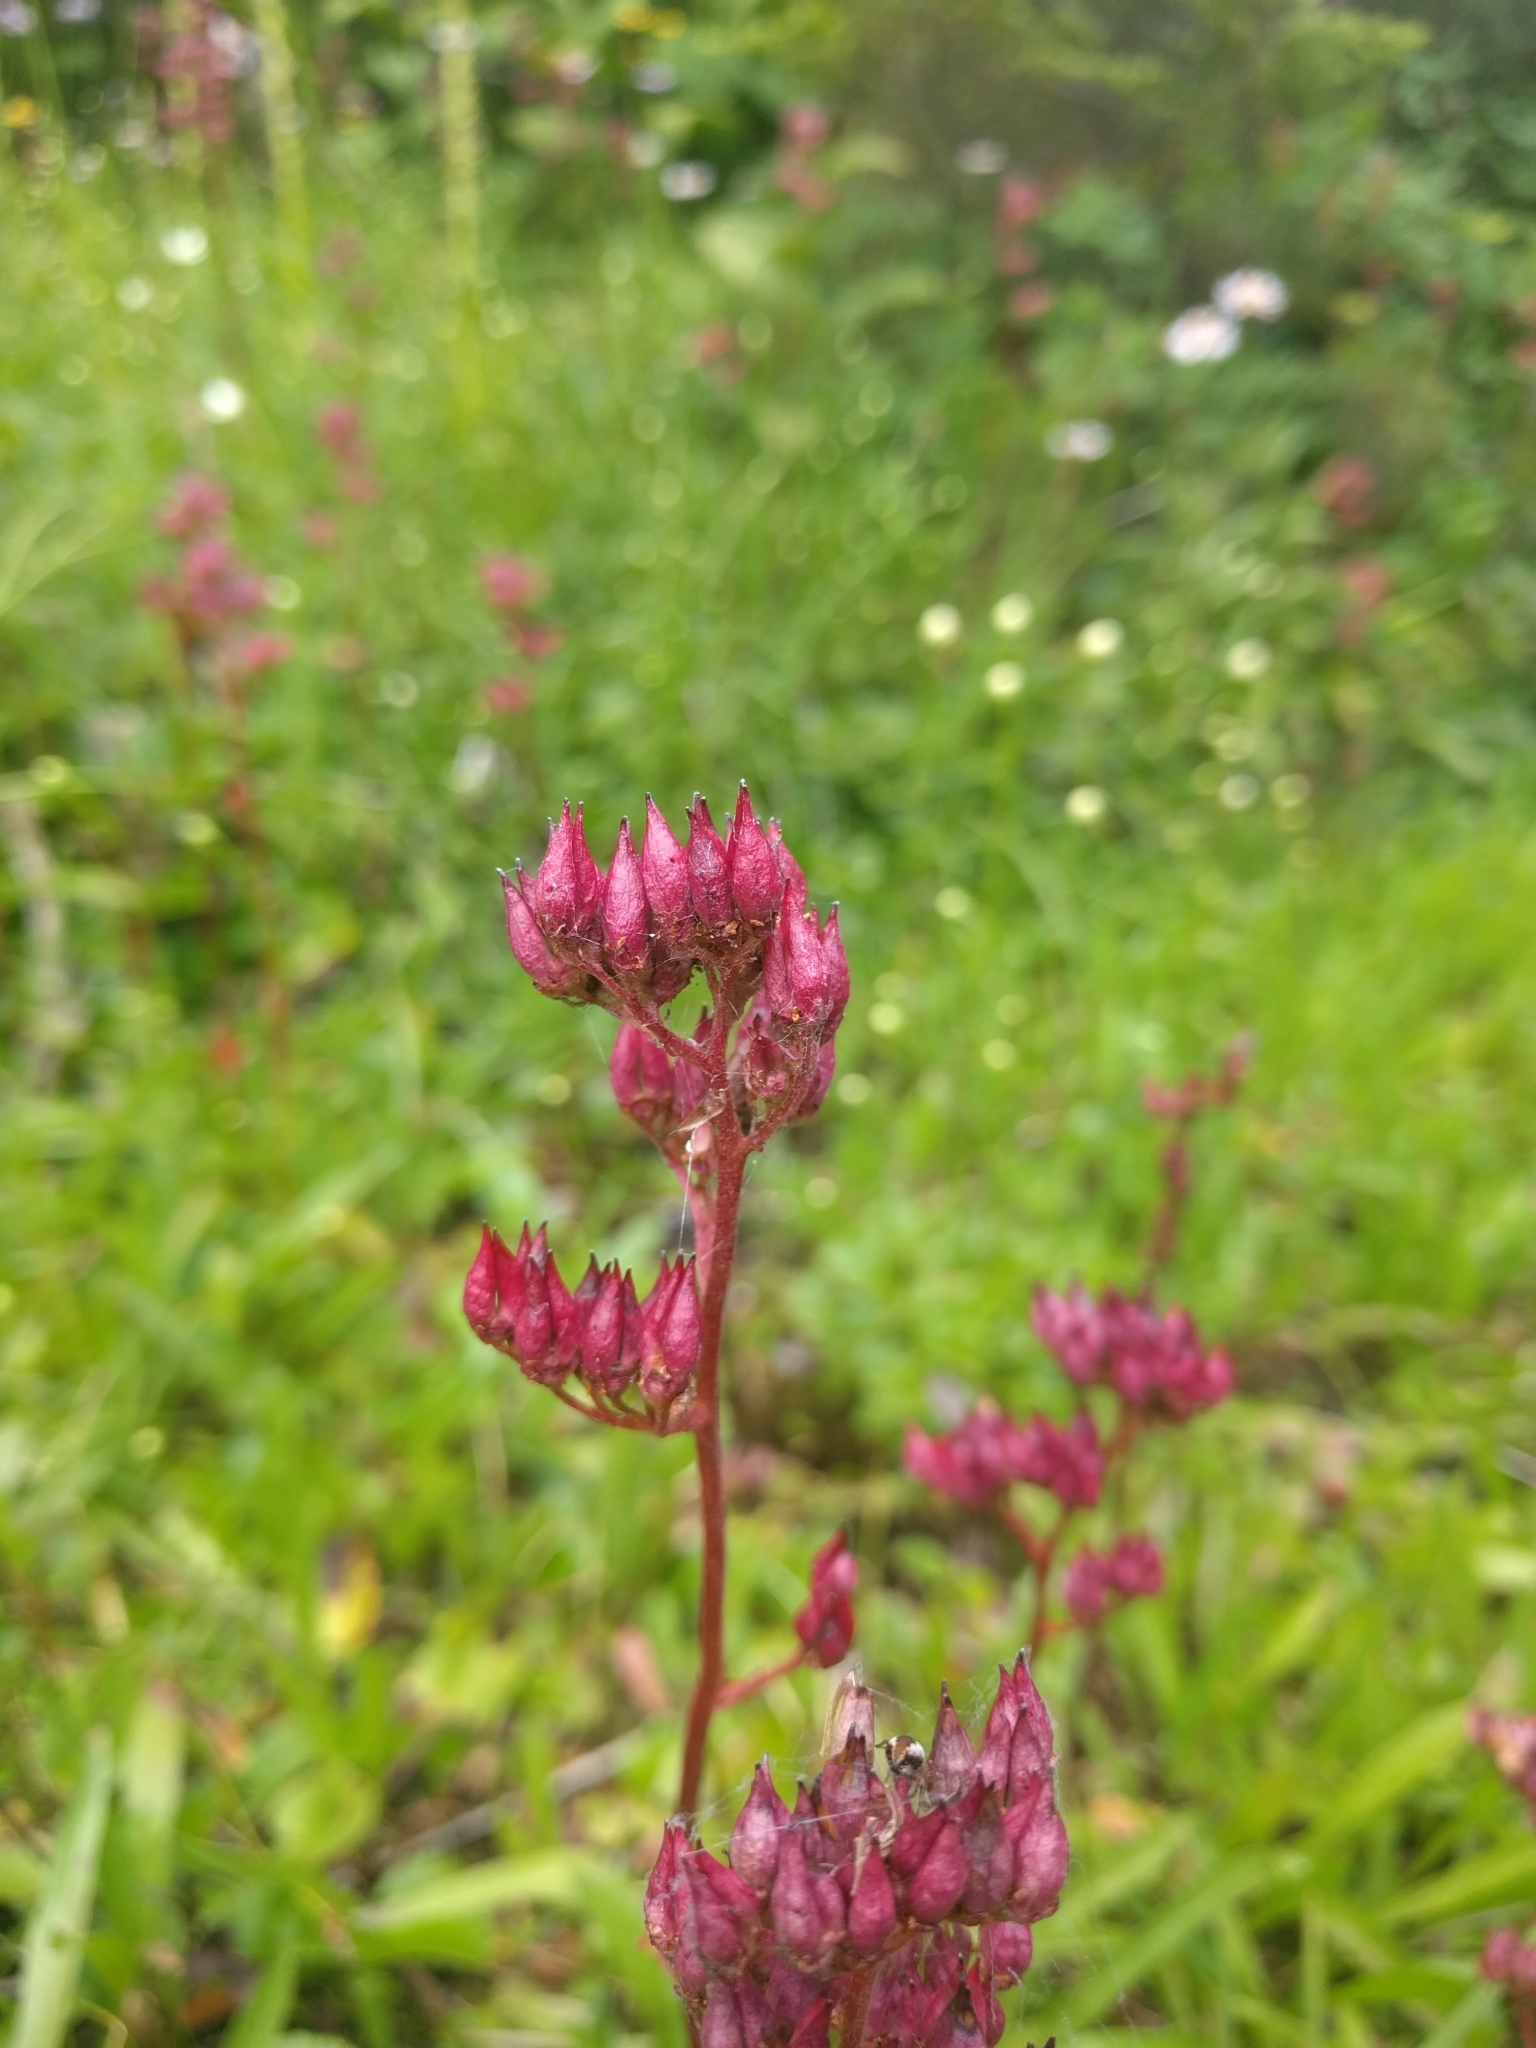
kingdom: Plantae
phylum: Tracheophyta
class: Magnoliopsida
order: Saxifragales
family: Saxifragaceae
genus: Leptarrhena
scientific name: Leptarrhena pyrolifolia
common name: Leatherleaf-saxifrage
